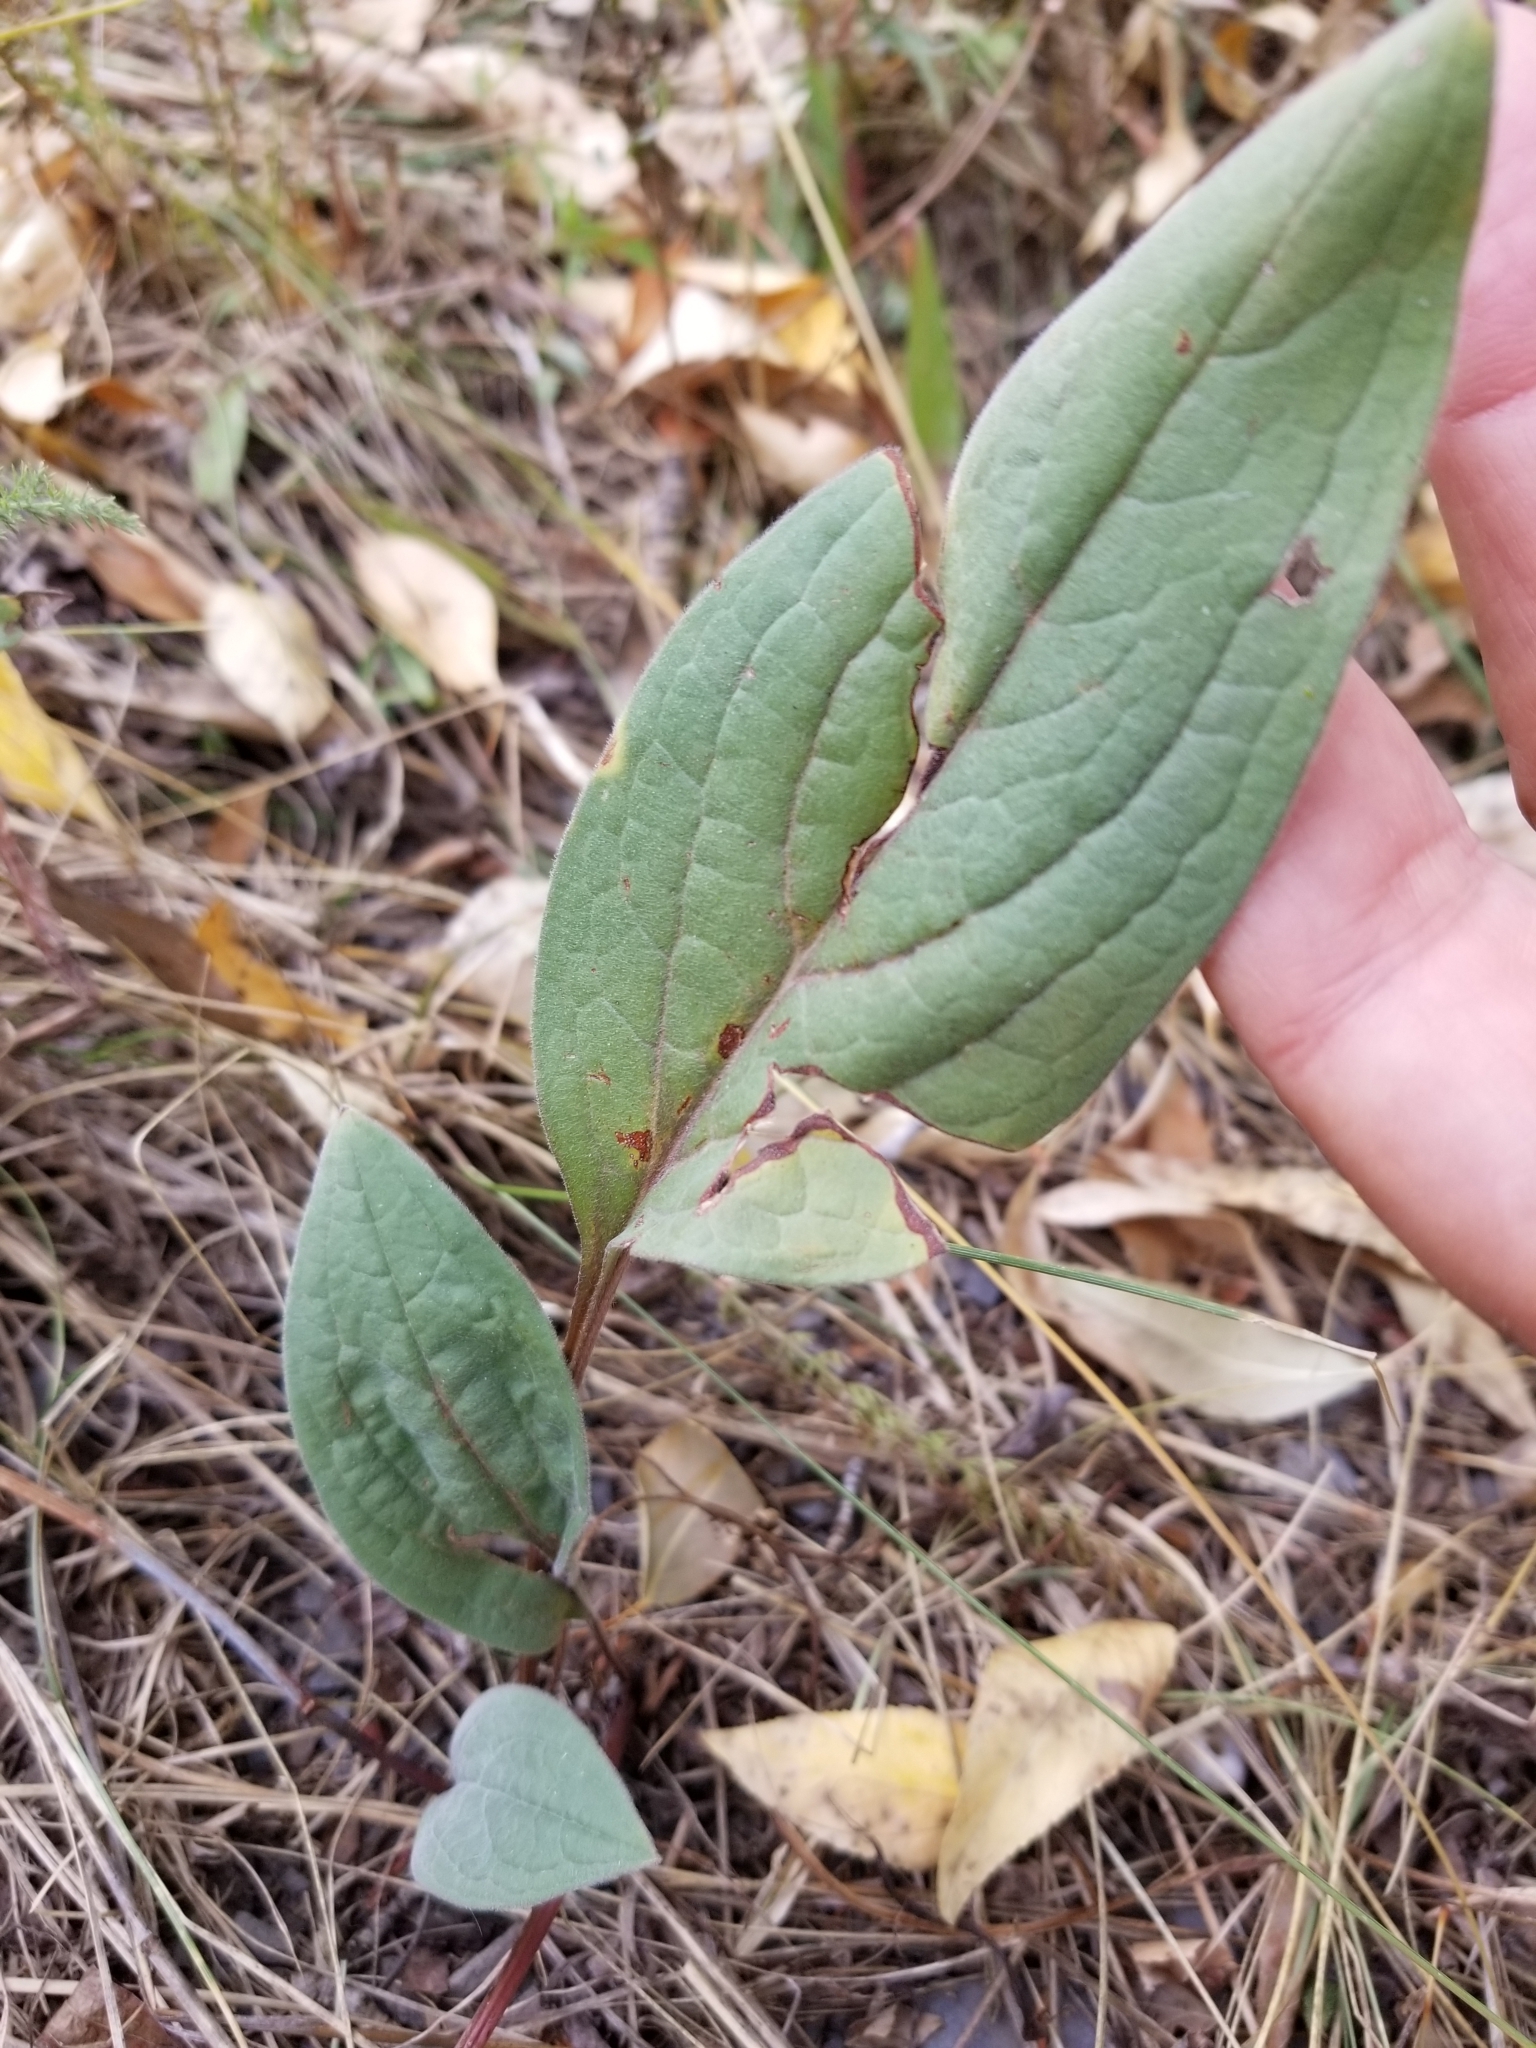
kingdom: Plantae
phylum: Tracheophyta
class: Magnoliopsida
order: Boraginales
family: Boraginaceae
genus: Cynoglossum
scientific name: Cynoglossum officinale
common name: Hound's-tongue
